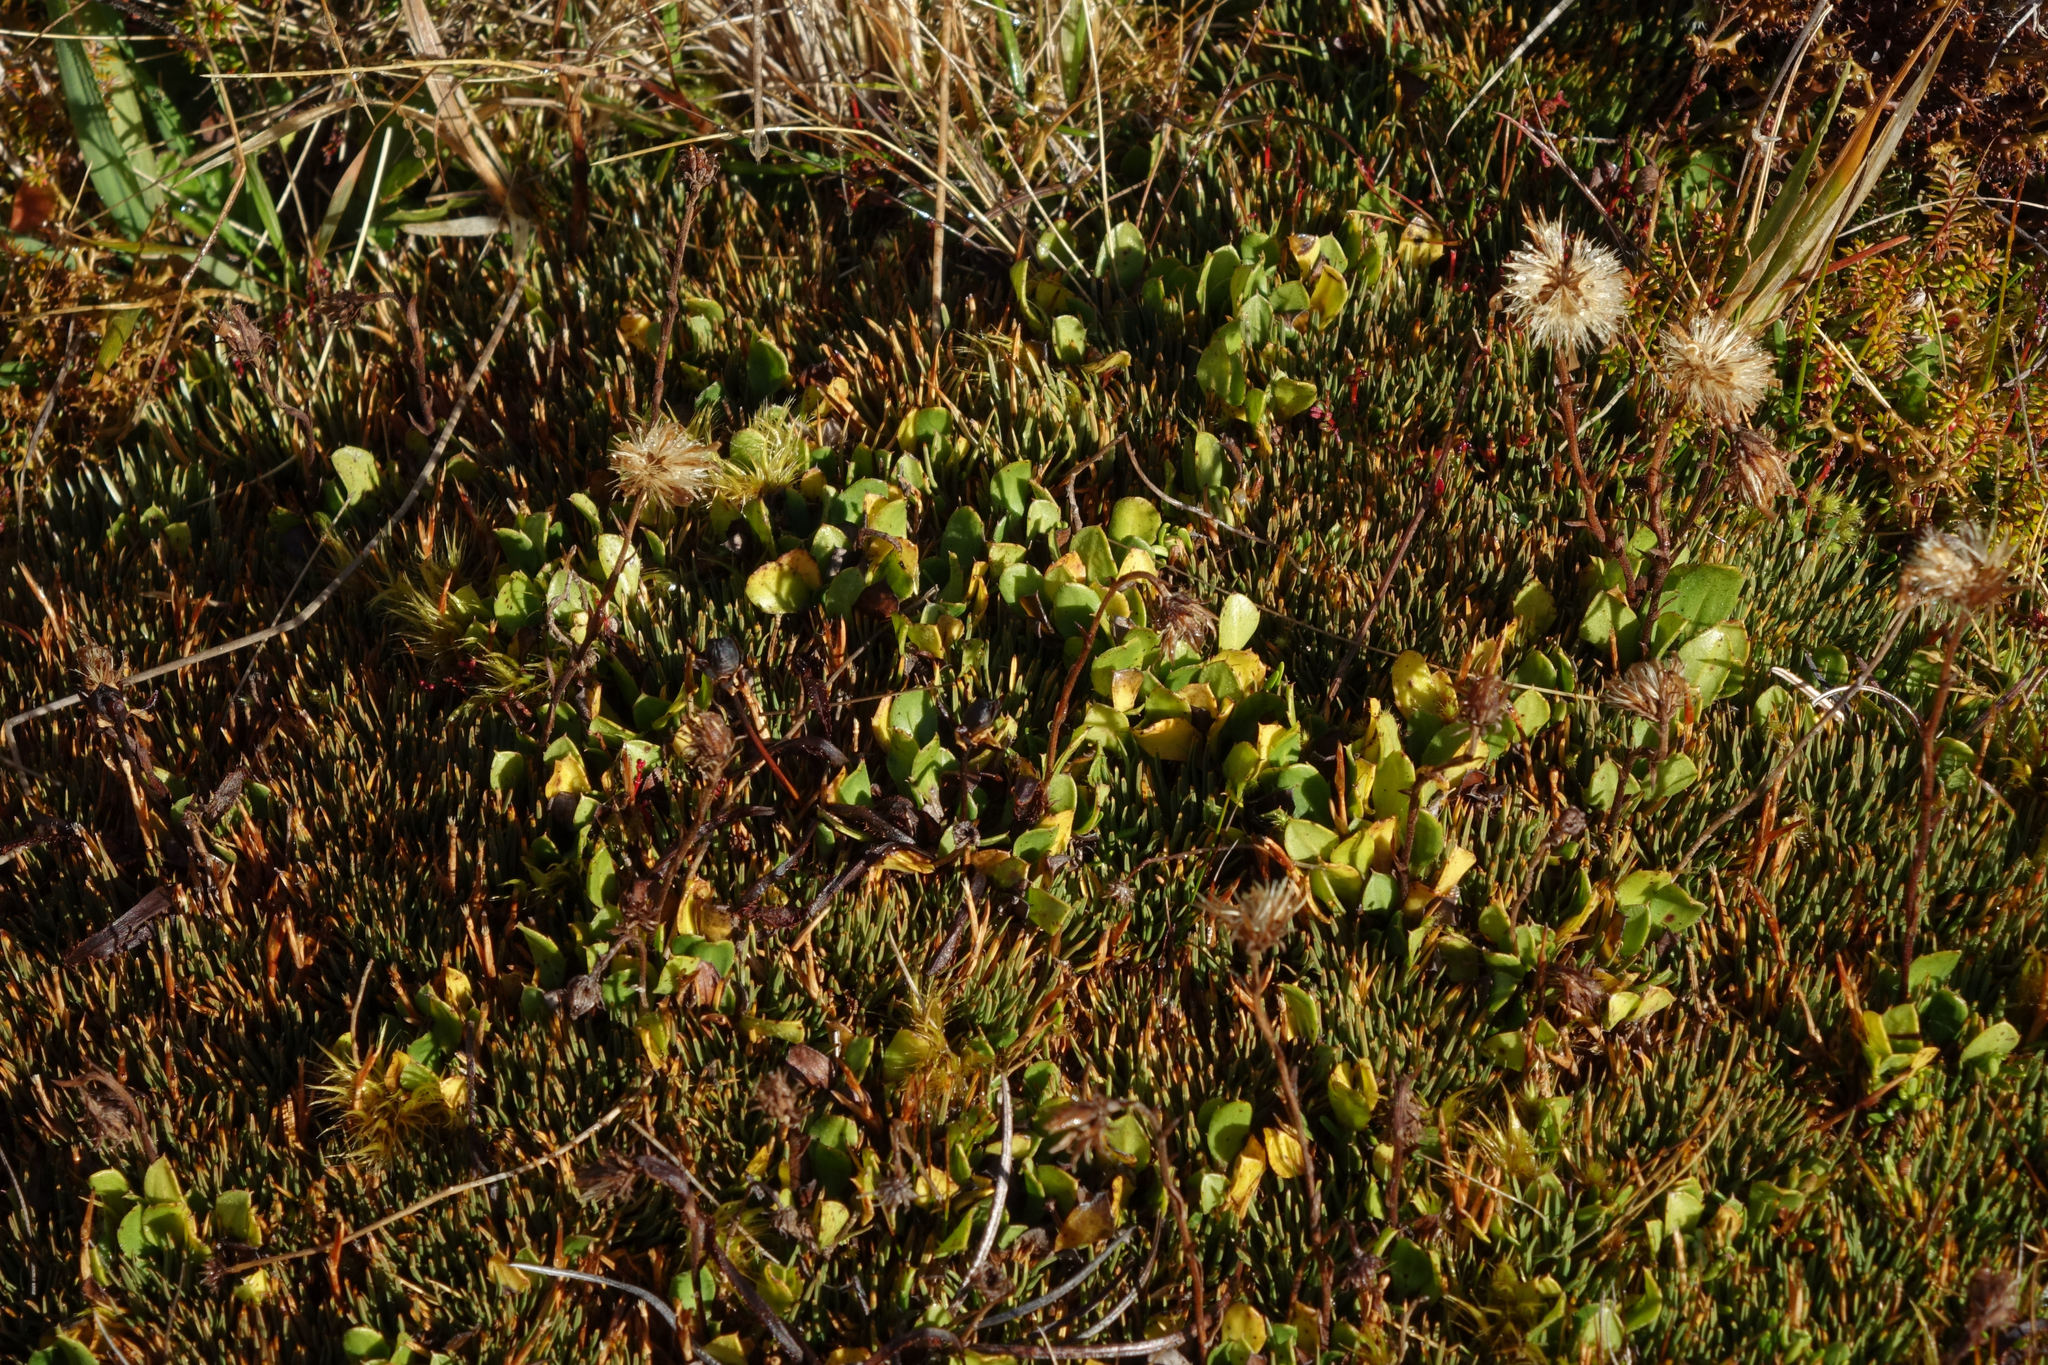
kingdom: Plantae
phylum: Tracheophyta
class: Magnoliopsida
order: Asterales
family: Asteraceae
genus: Celmisia
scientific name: Celmisia glandulosa
